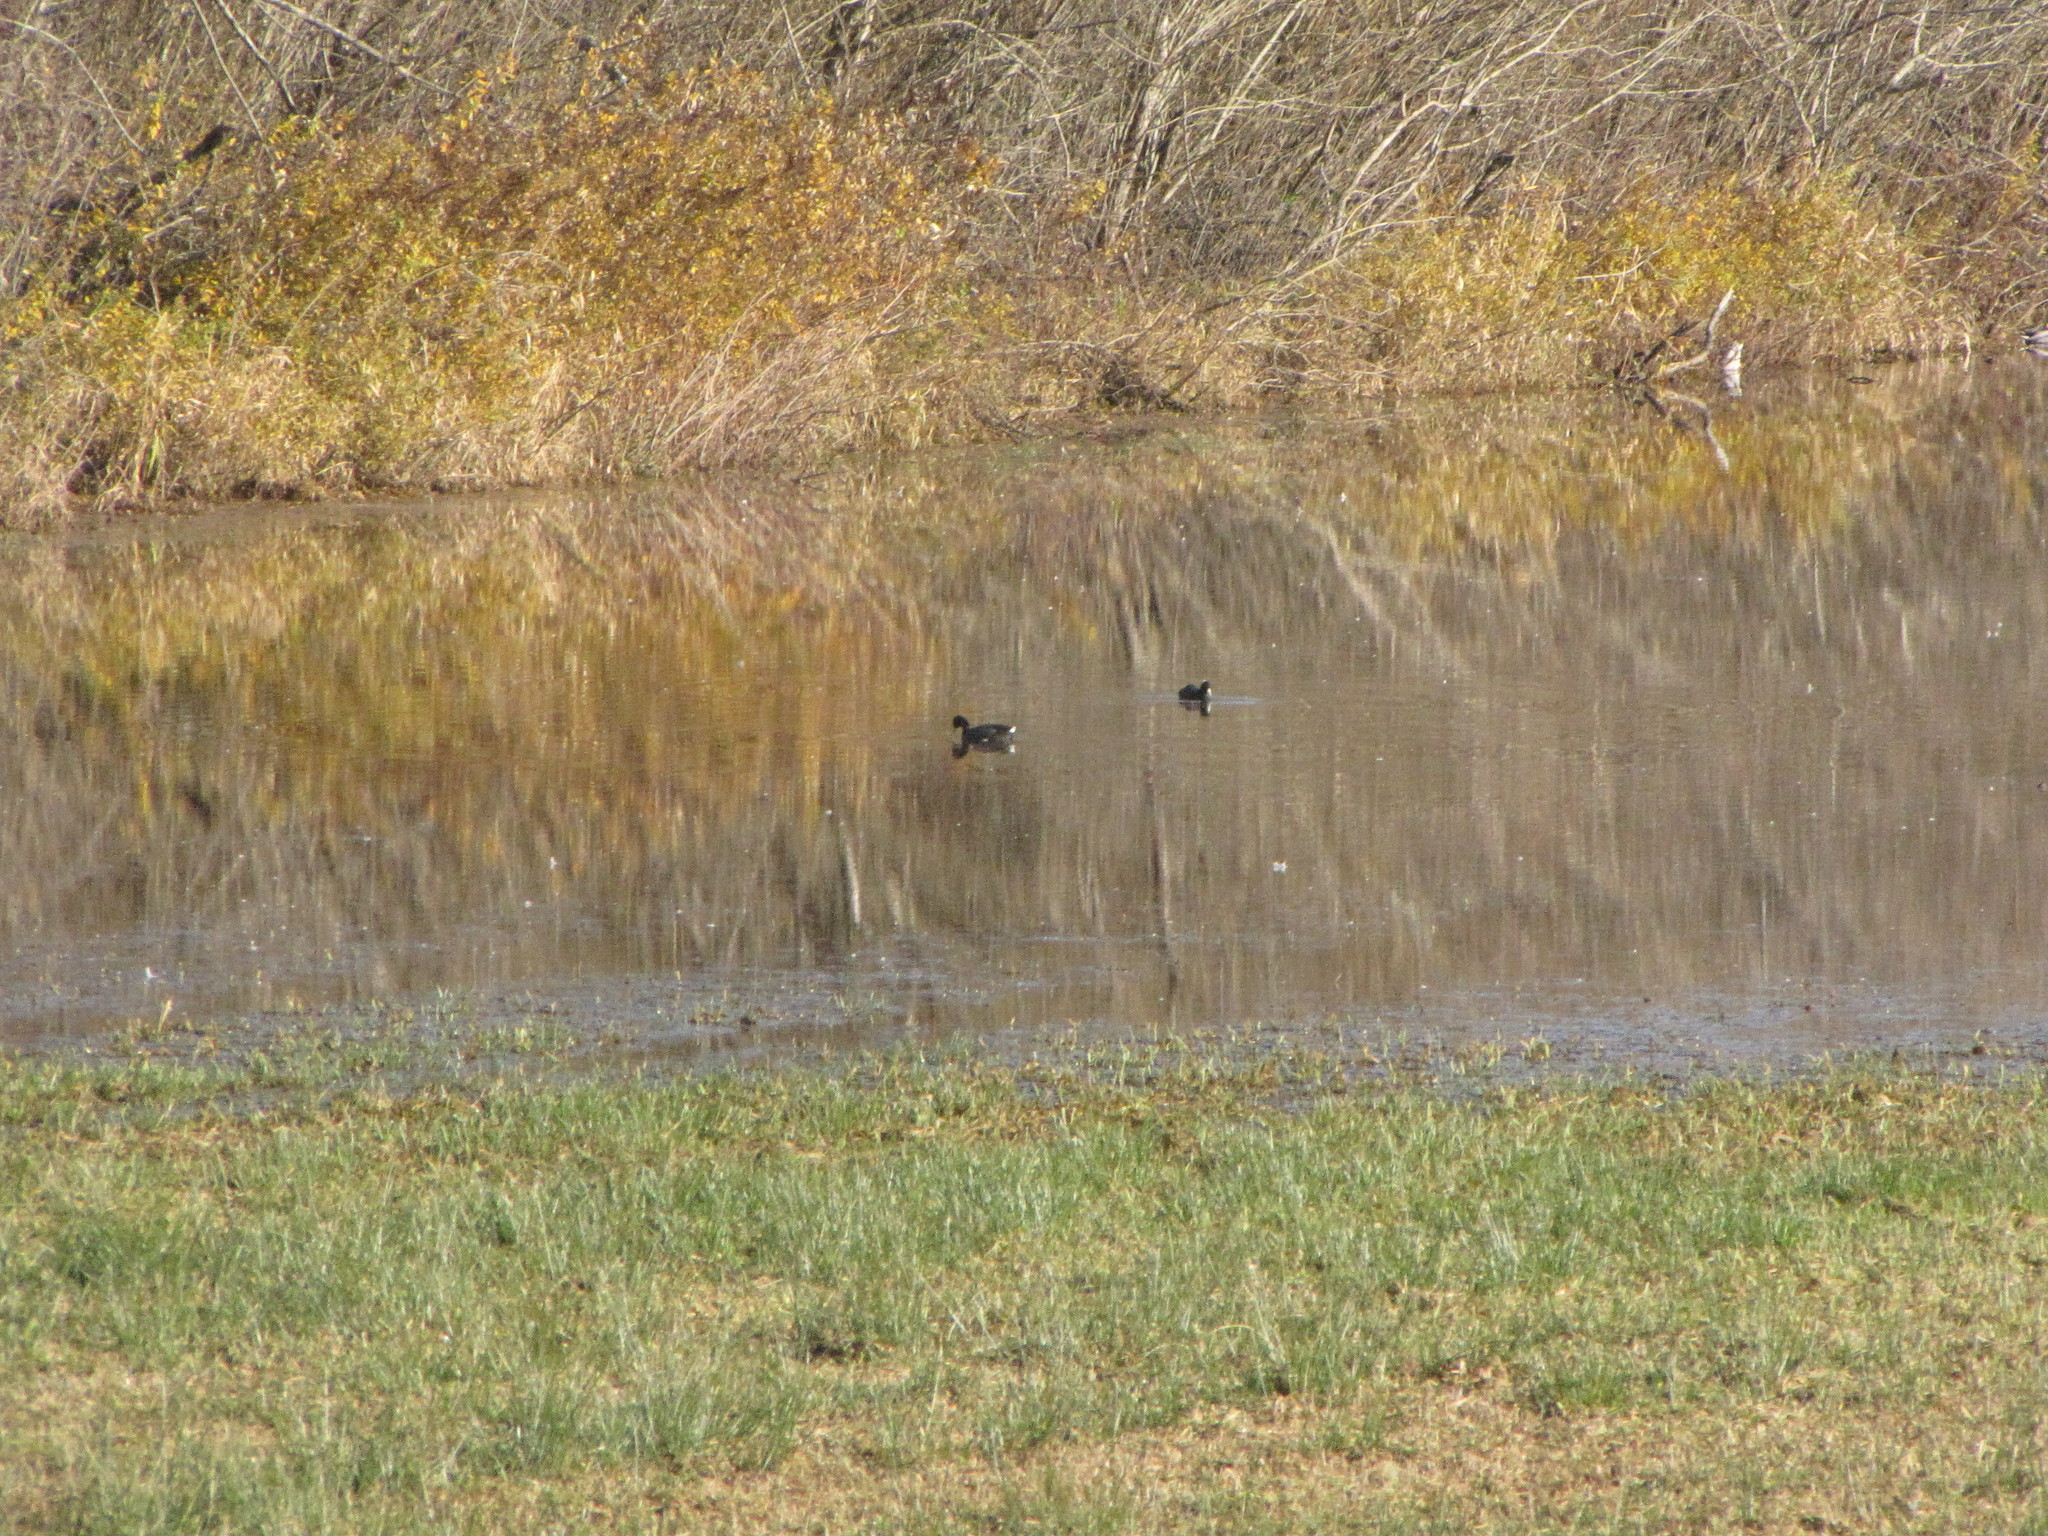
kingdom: Animalia
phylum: Chordata
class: Aves
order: Gruiformes
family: Rallidae
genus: Fulica
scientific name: Fulica americana
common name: American coot
